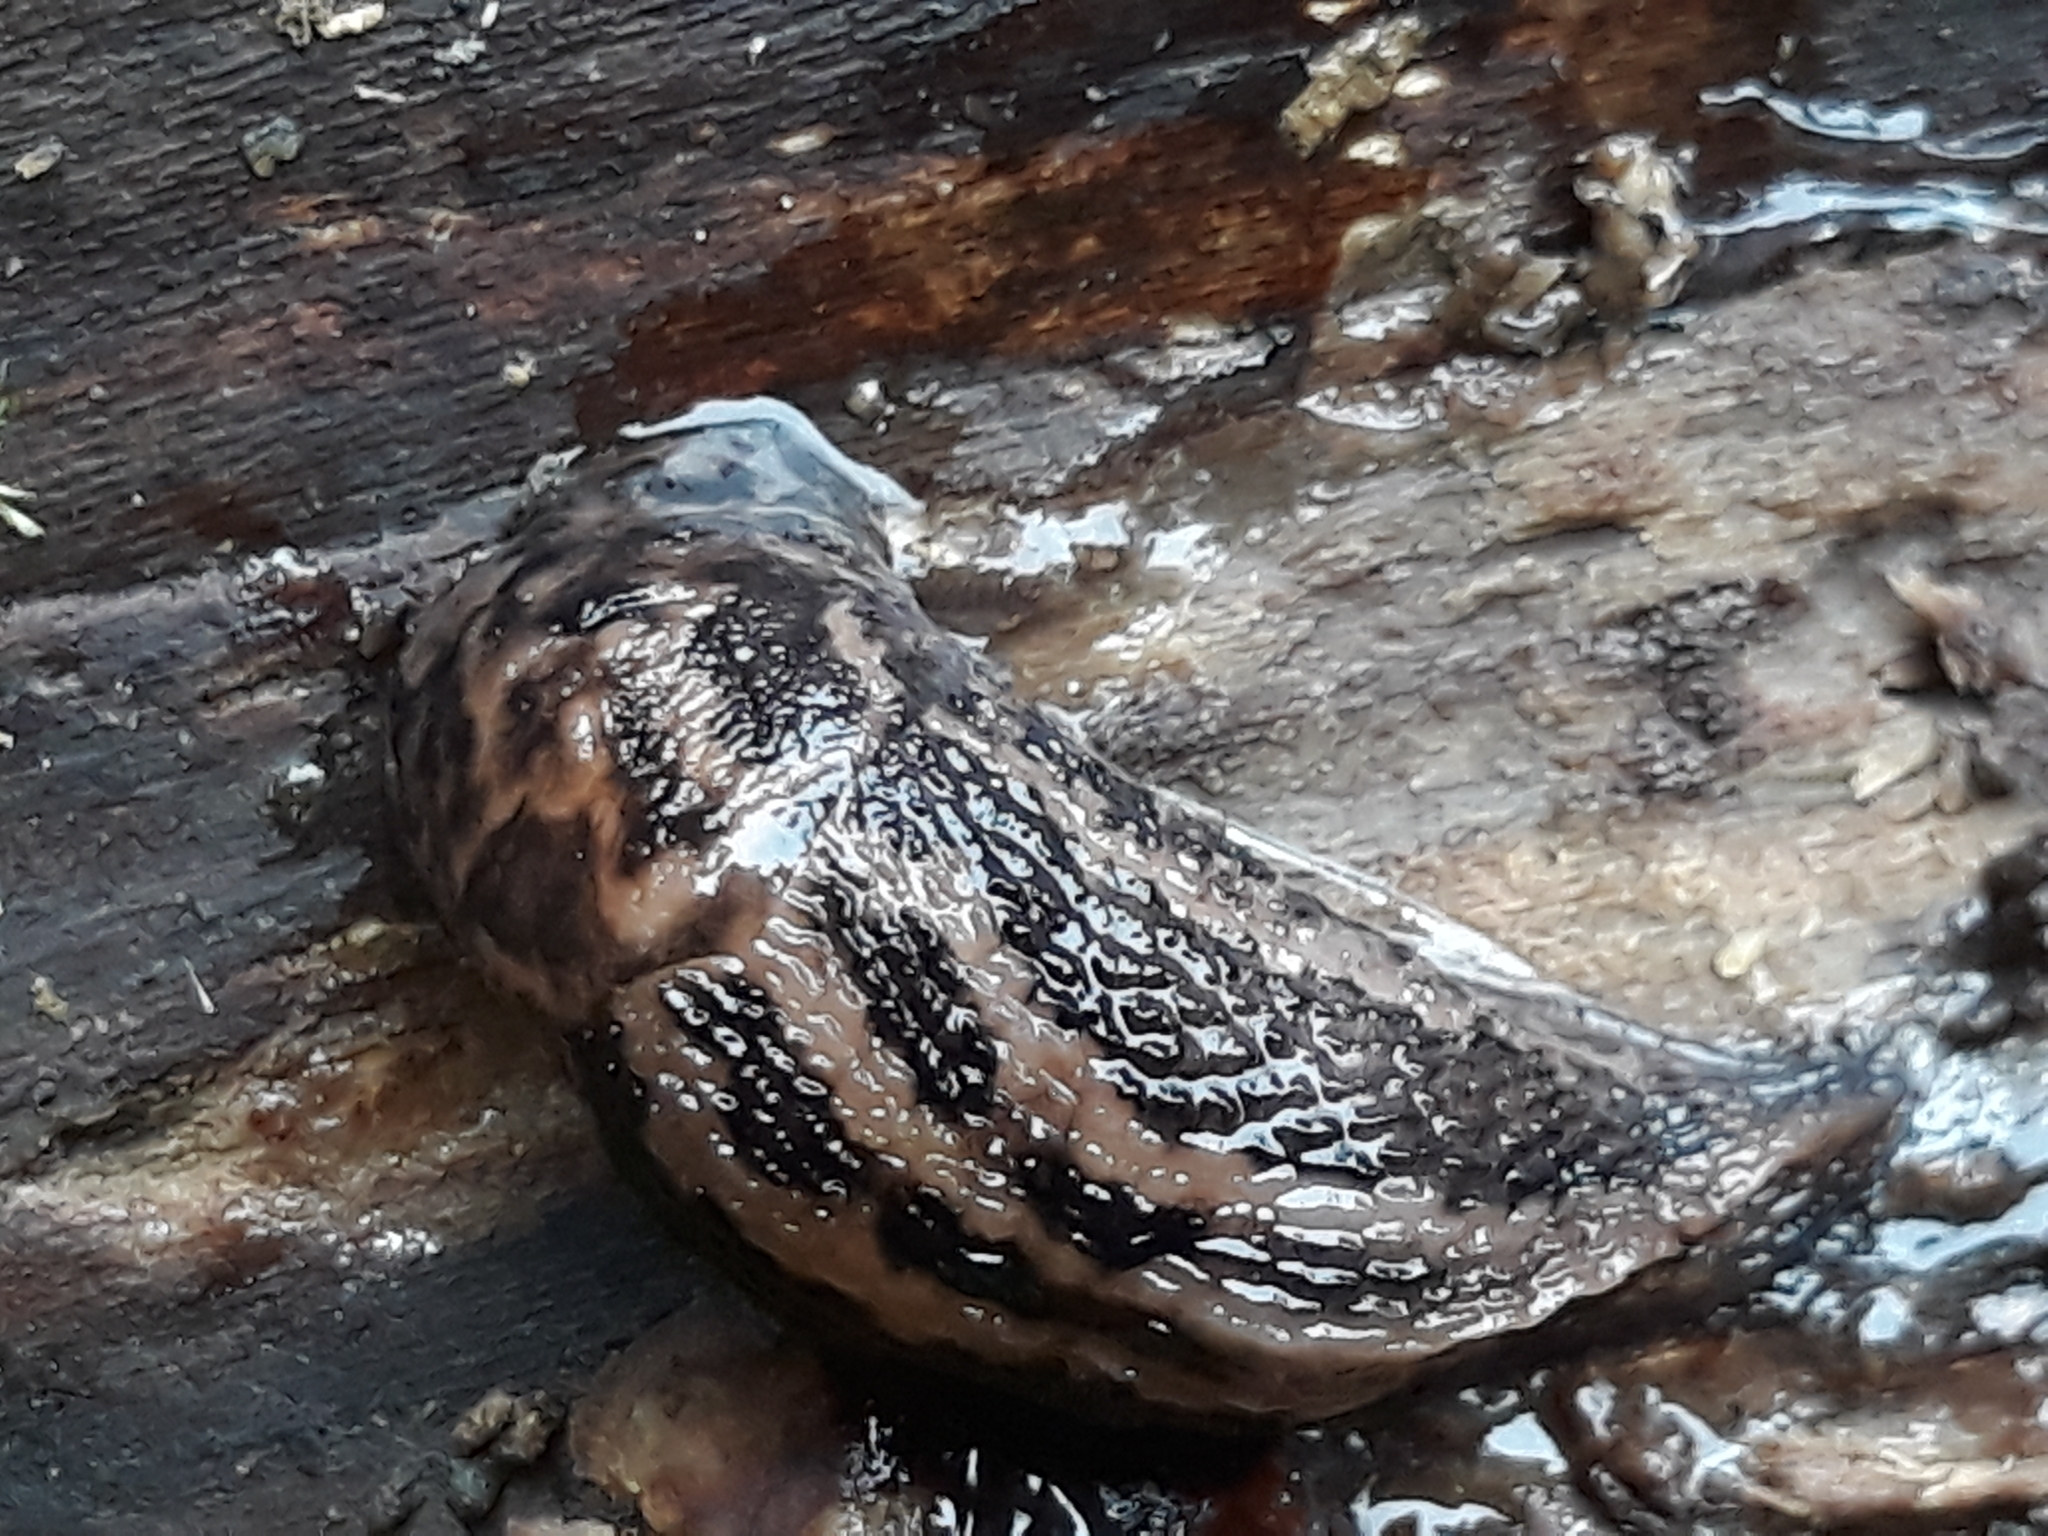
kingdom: Animalia
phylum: Mollusca
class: Gastropoda
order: Stylommatophora
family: Limacidae
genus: Limax
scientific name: Limax maximus
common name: Great grey slug
